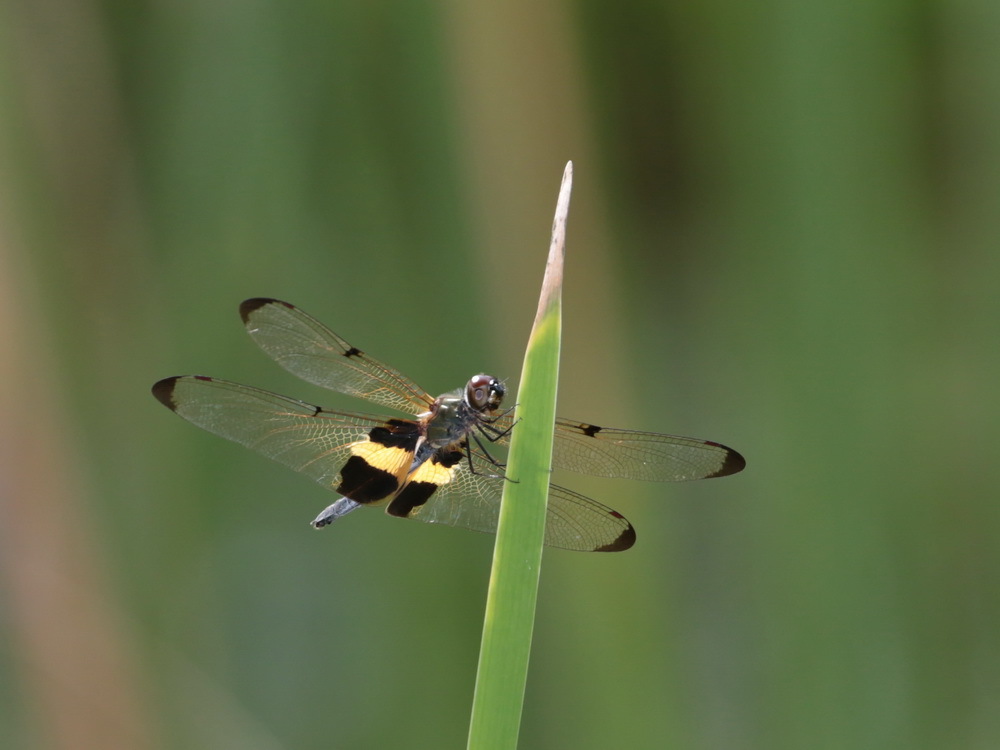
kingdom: Animalia
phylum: Arthropoda
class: Insecta
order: Odonata
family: Libellulidae
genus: Rhyothemis
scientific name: Rhyothemis phyllis
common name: Yellow-barred flutterer
